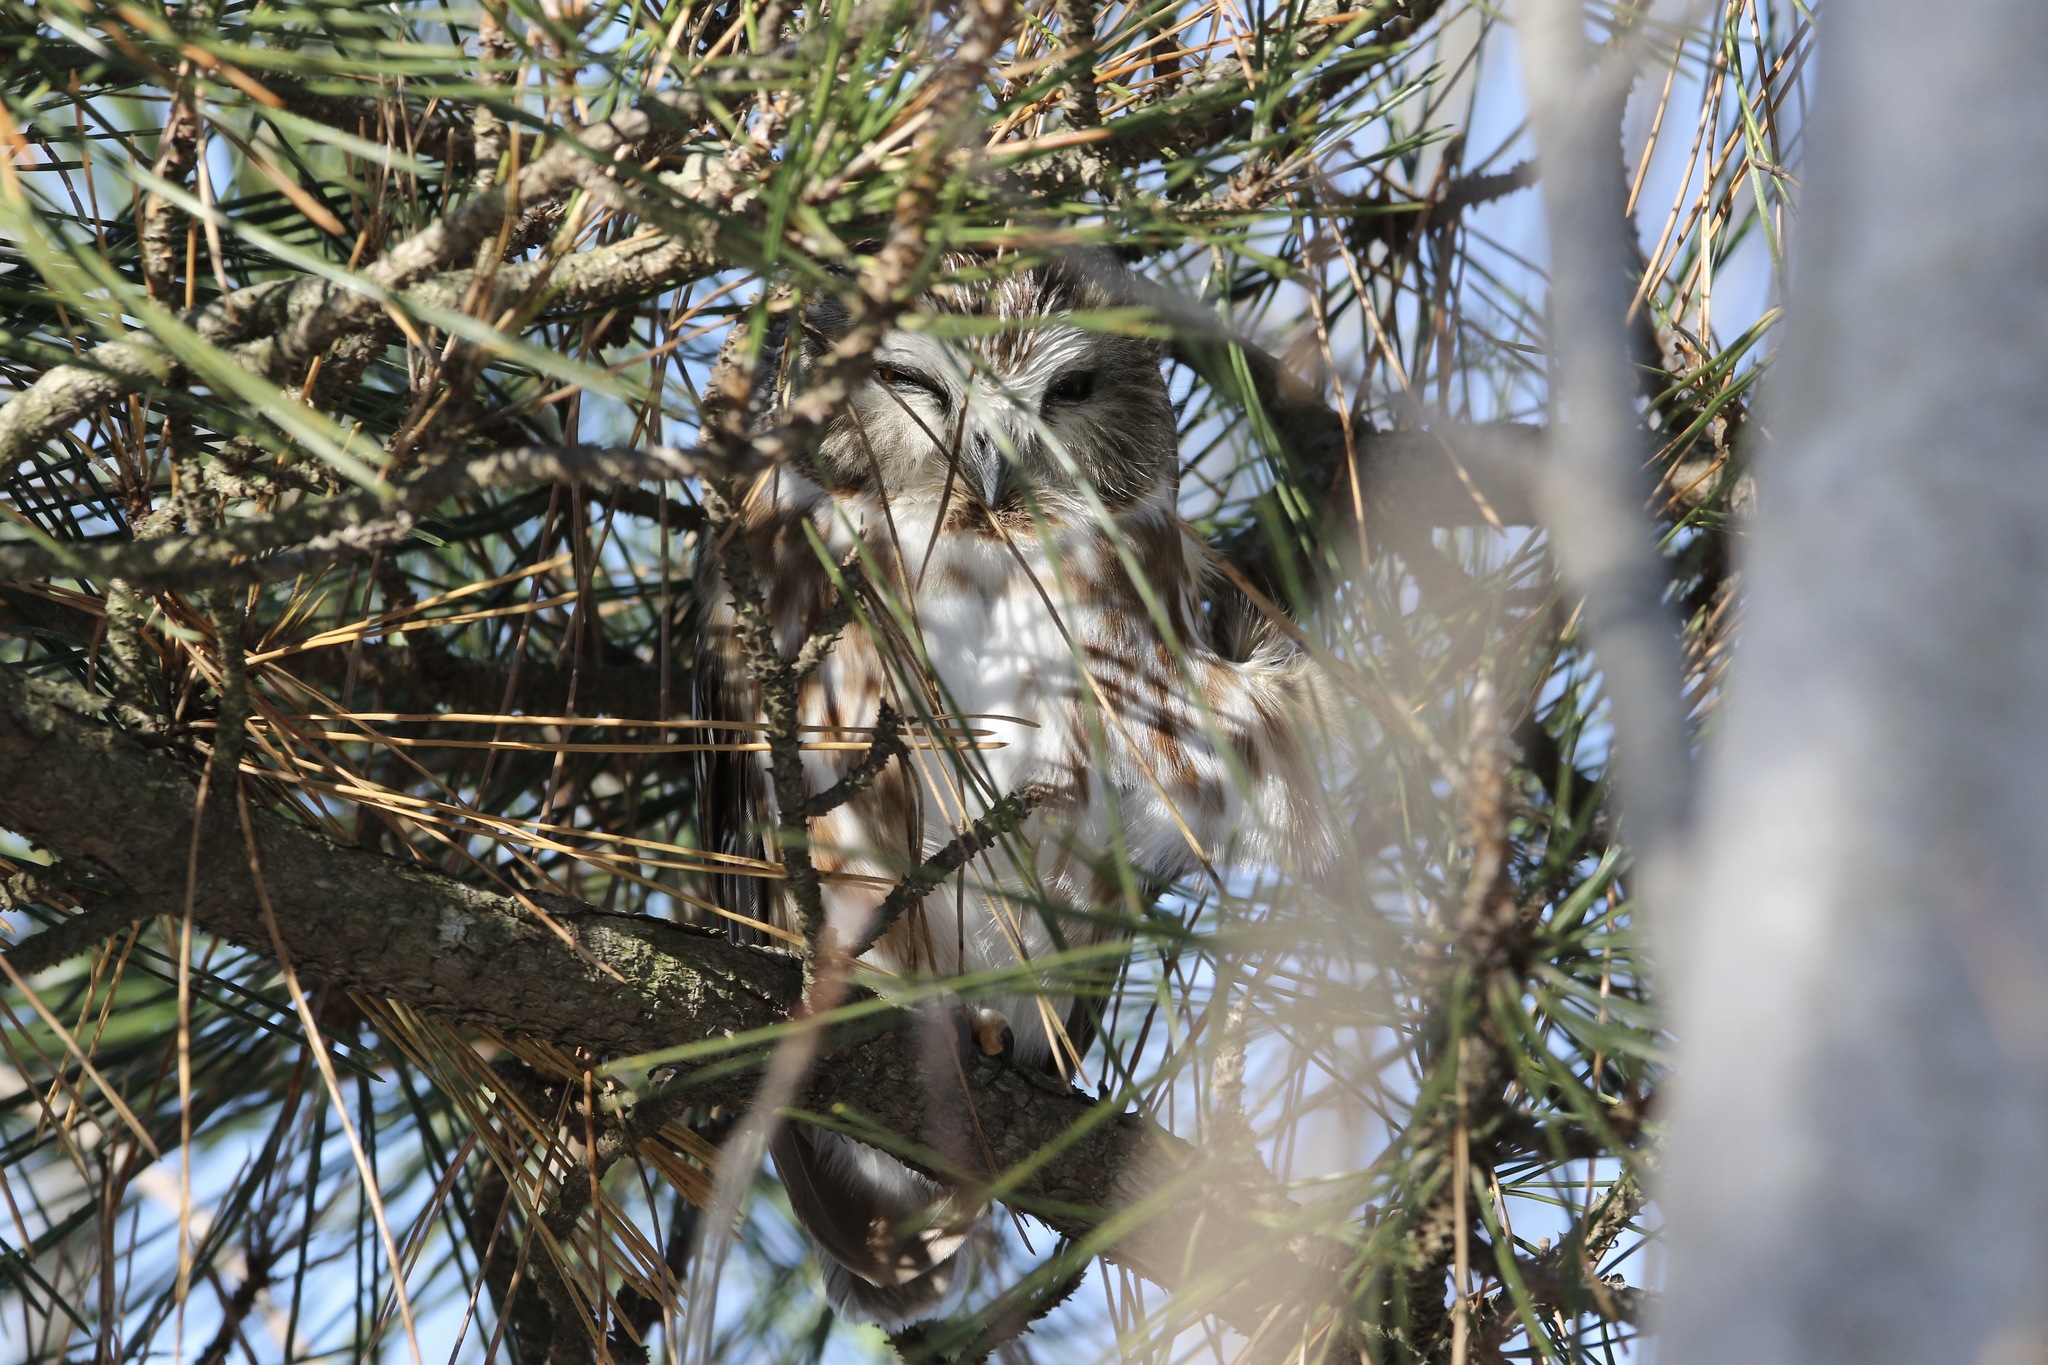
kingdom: Animalia
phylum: Chordata
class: Aves
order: Strigiformes
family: Strigidae
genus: Aegolius
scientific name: Aegolius acadicus
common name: Northern saw-whet owl
